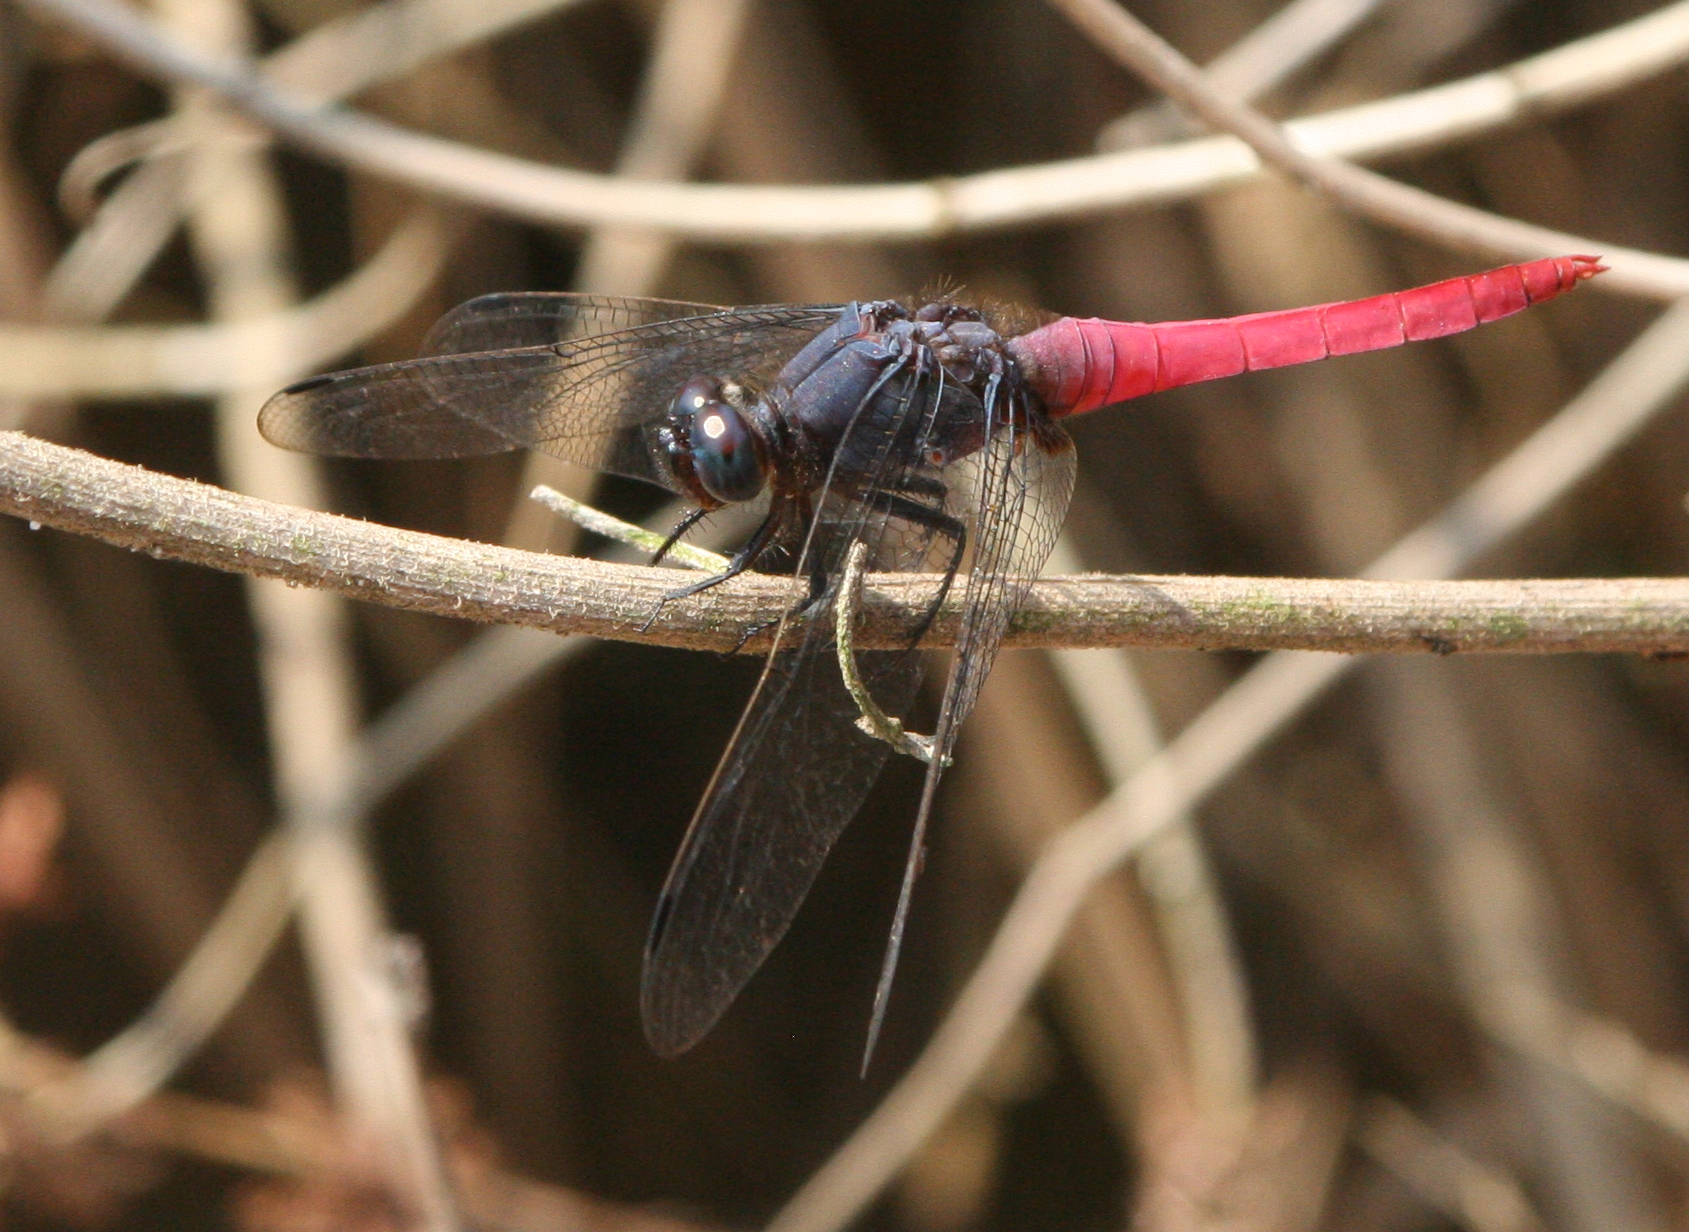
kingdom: Animalia
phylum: Arthropoda
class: Insecta
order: Odonata
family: Libellulidae
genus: Orthetrum
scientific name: Orthetrum pruinosum
